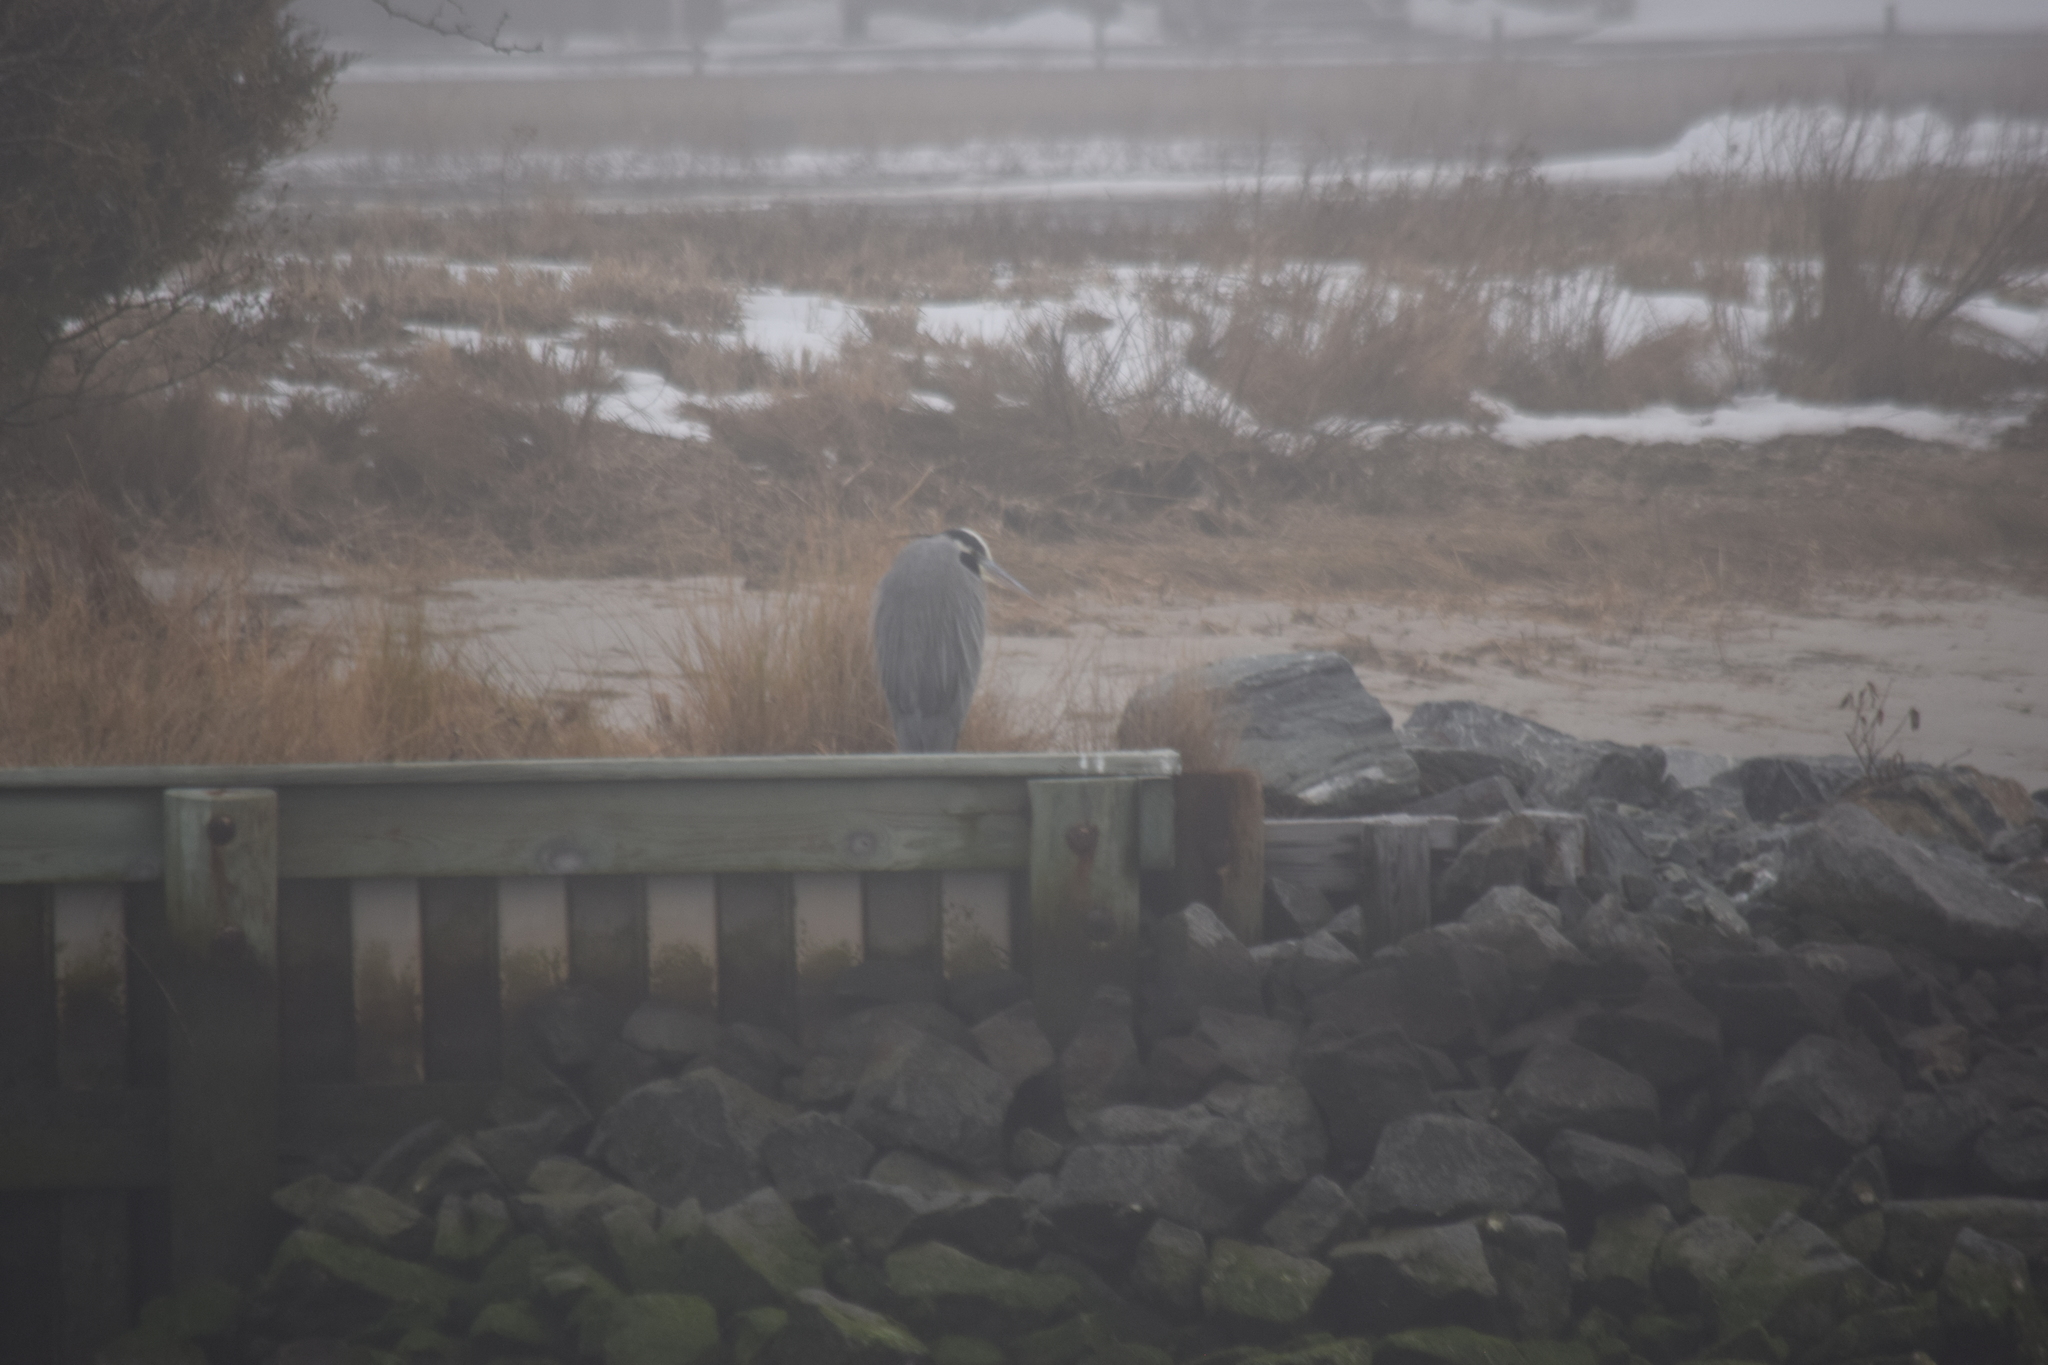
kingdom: Animalia
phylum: Chordata
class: Aves
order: Pelecaniformes
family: Ardeidae
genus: Ardea
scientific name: Ardea herodias
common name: Great blue heron
